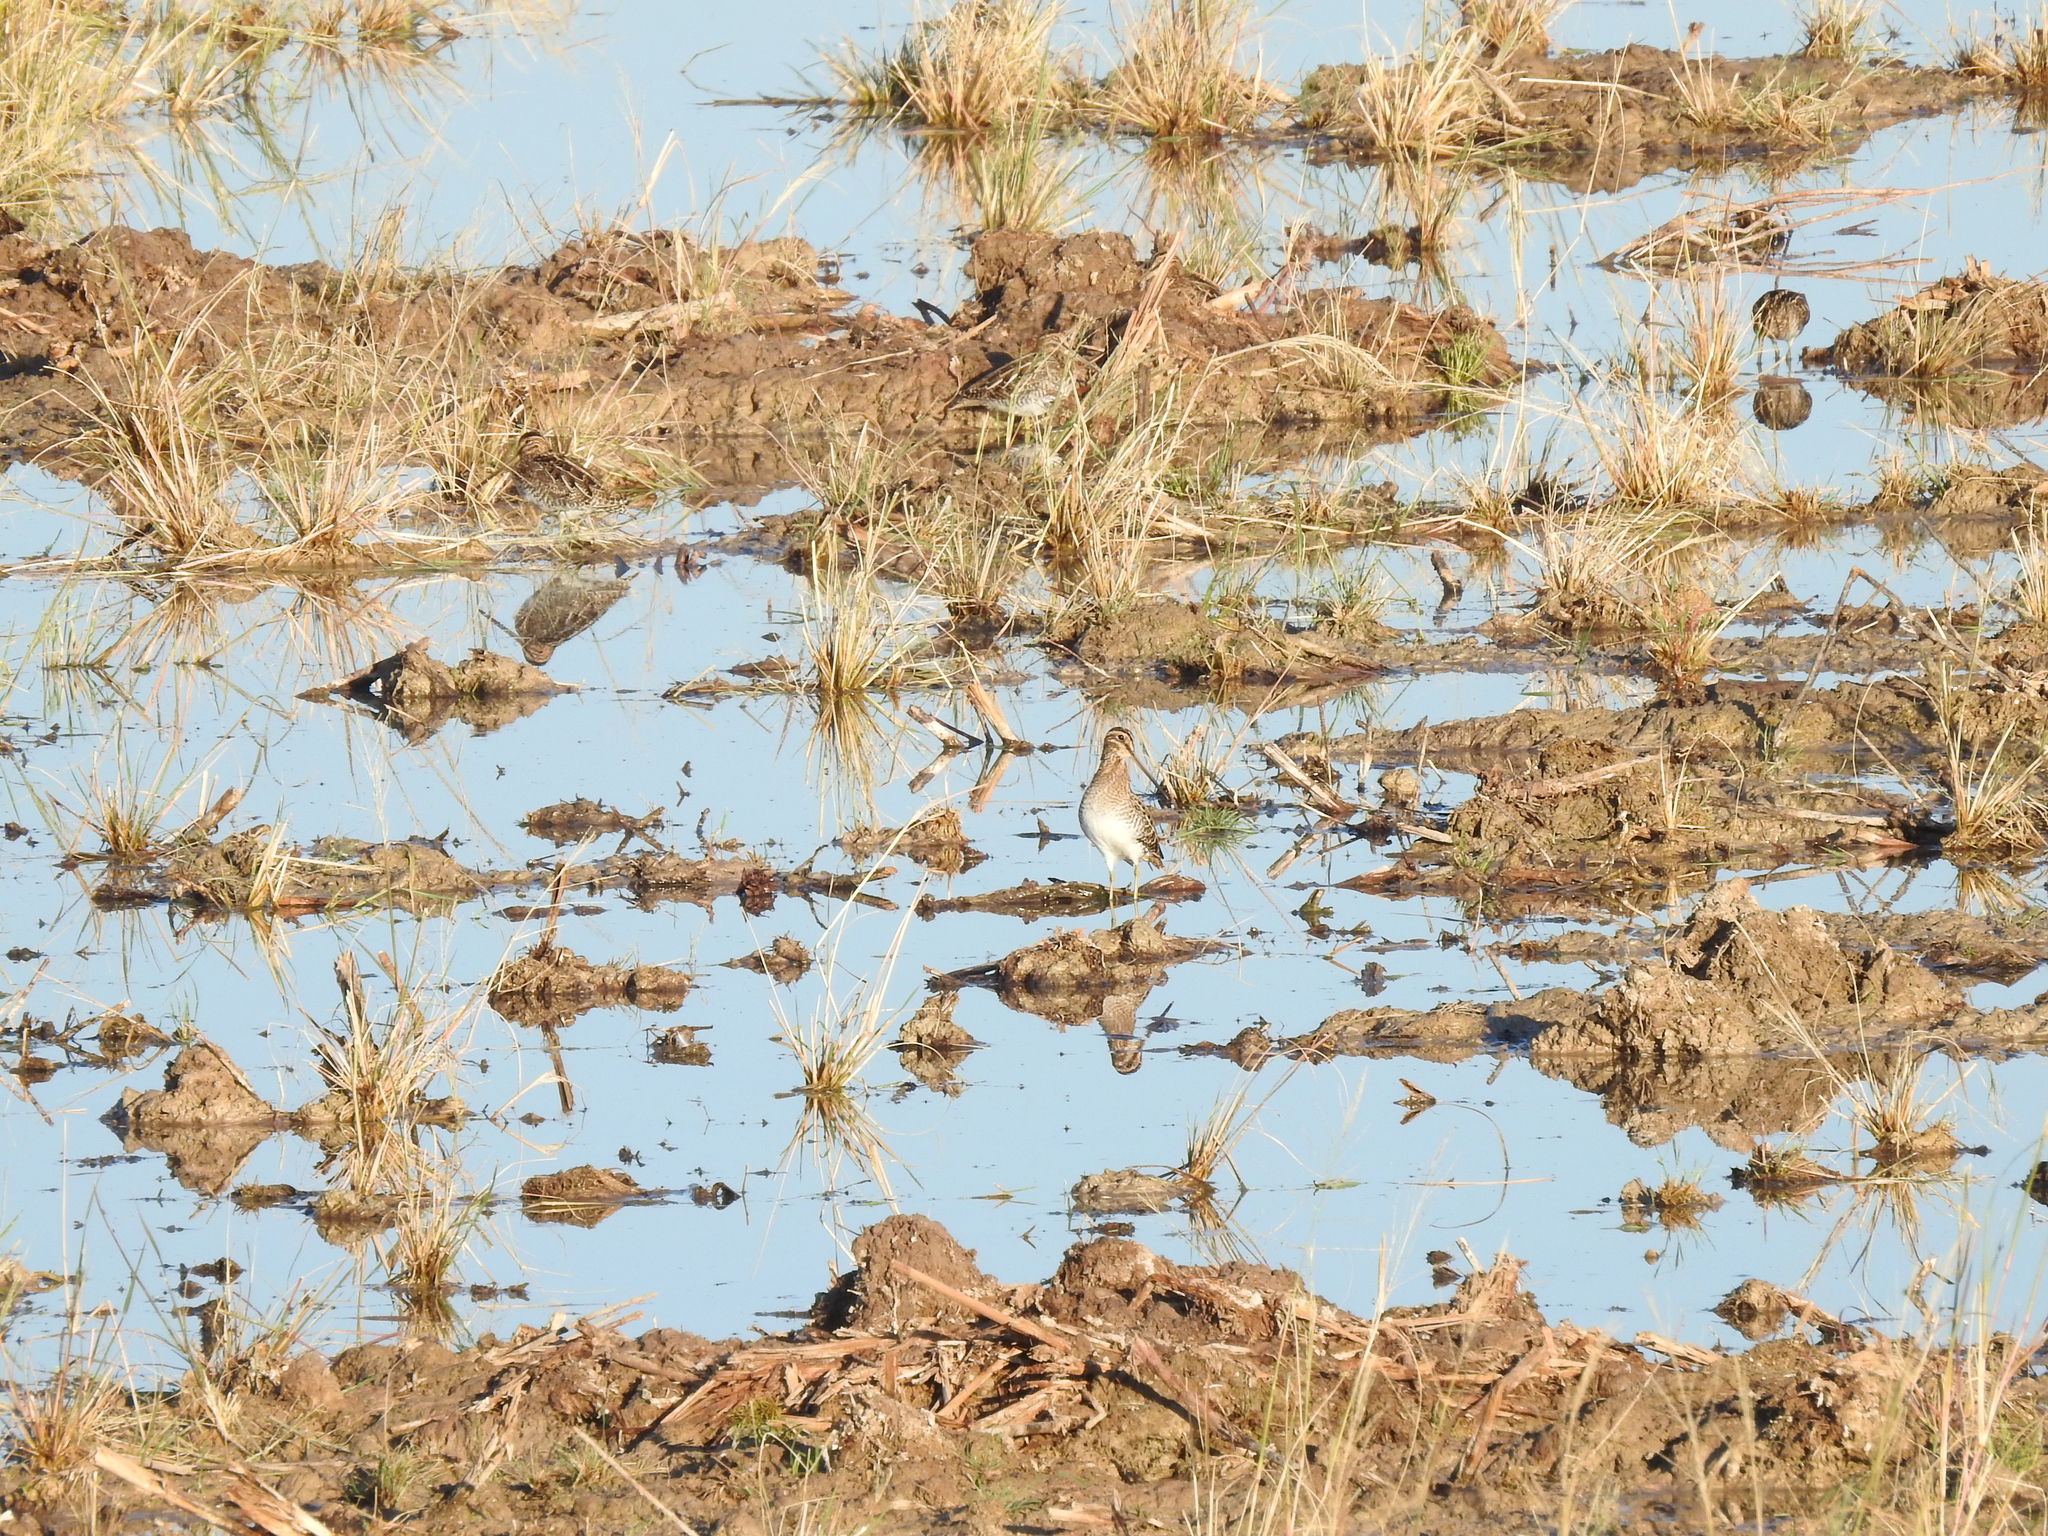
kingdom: Animalia
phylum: Chordata
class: Aves
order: Charadriiformes
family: Scolopacidae
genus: Gallinago
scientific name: Gallinago delicata
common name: Wilson's snipe
